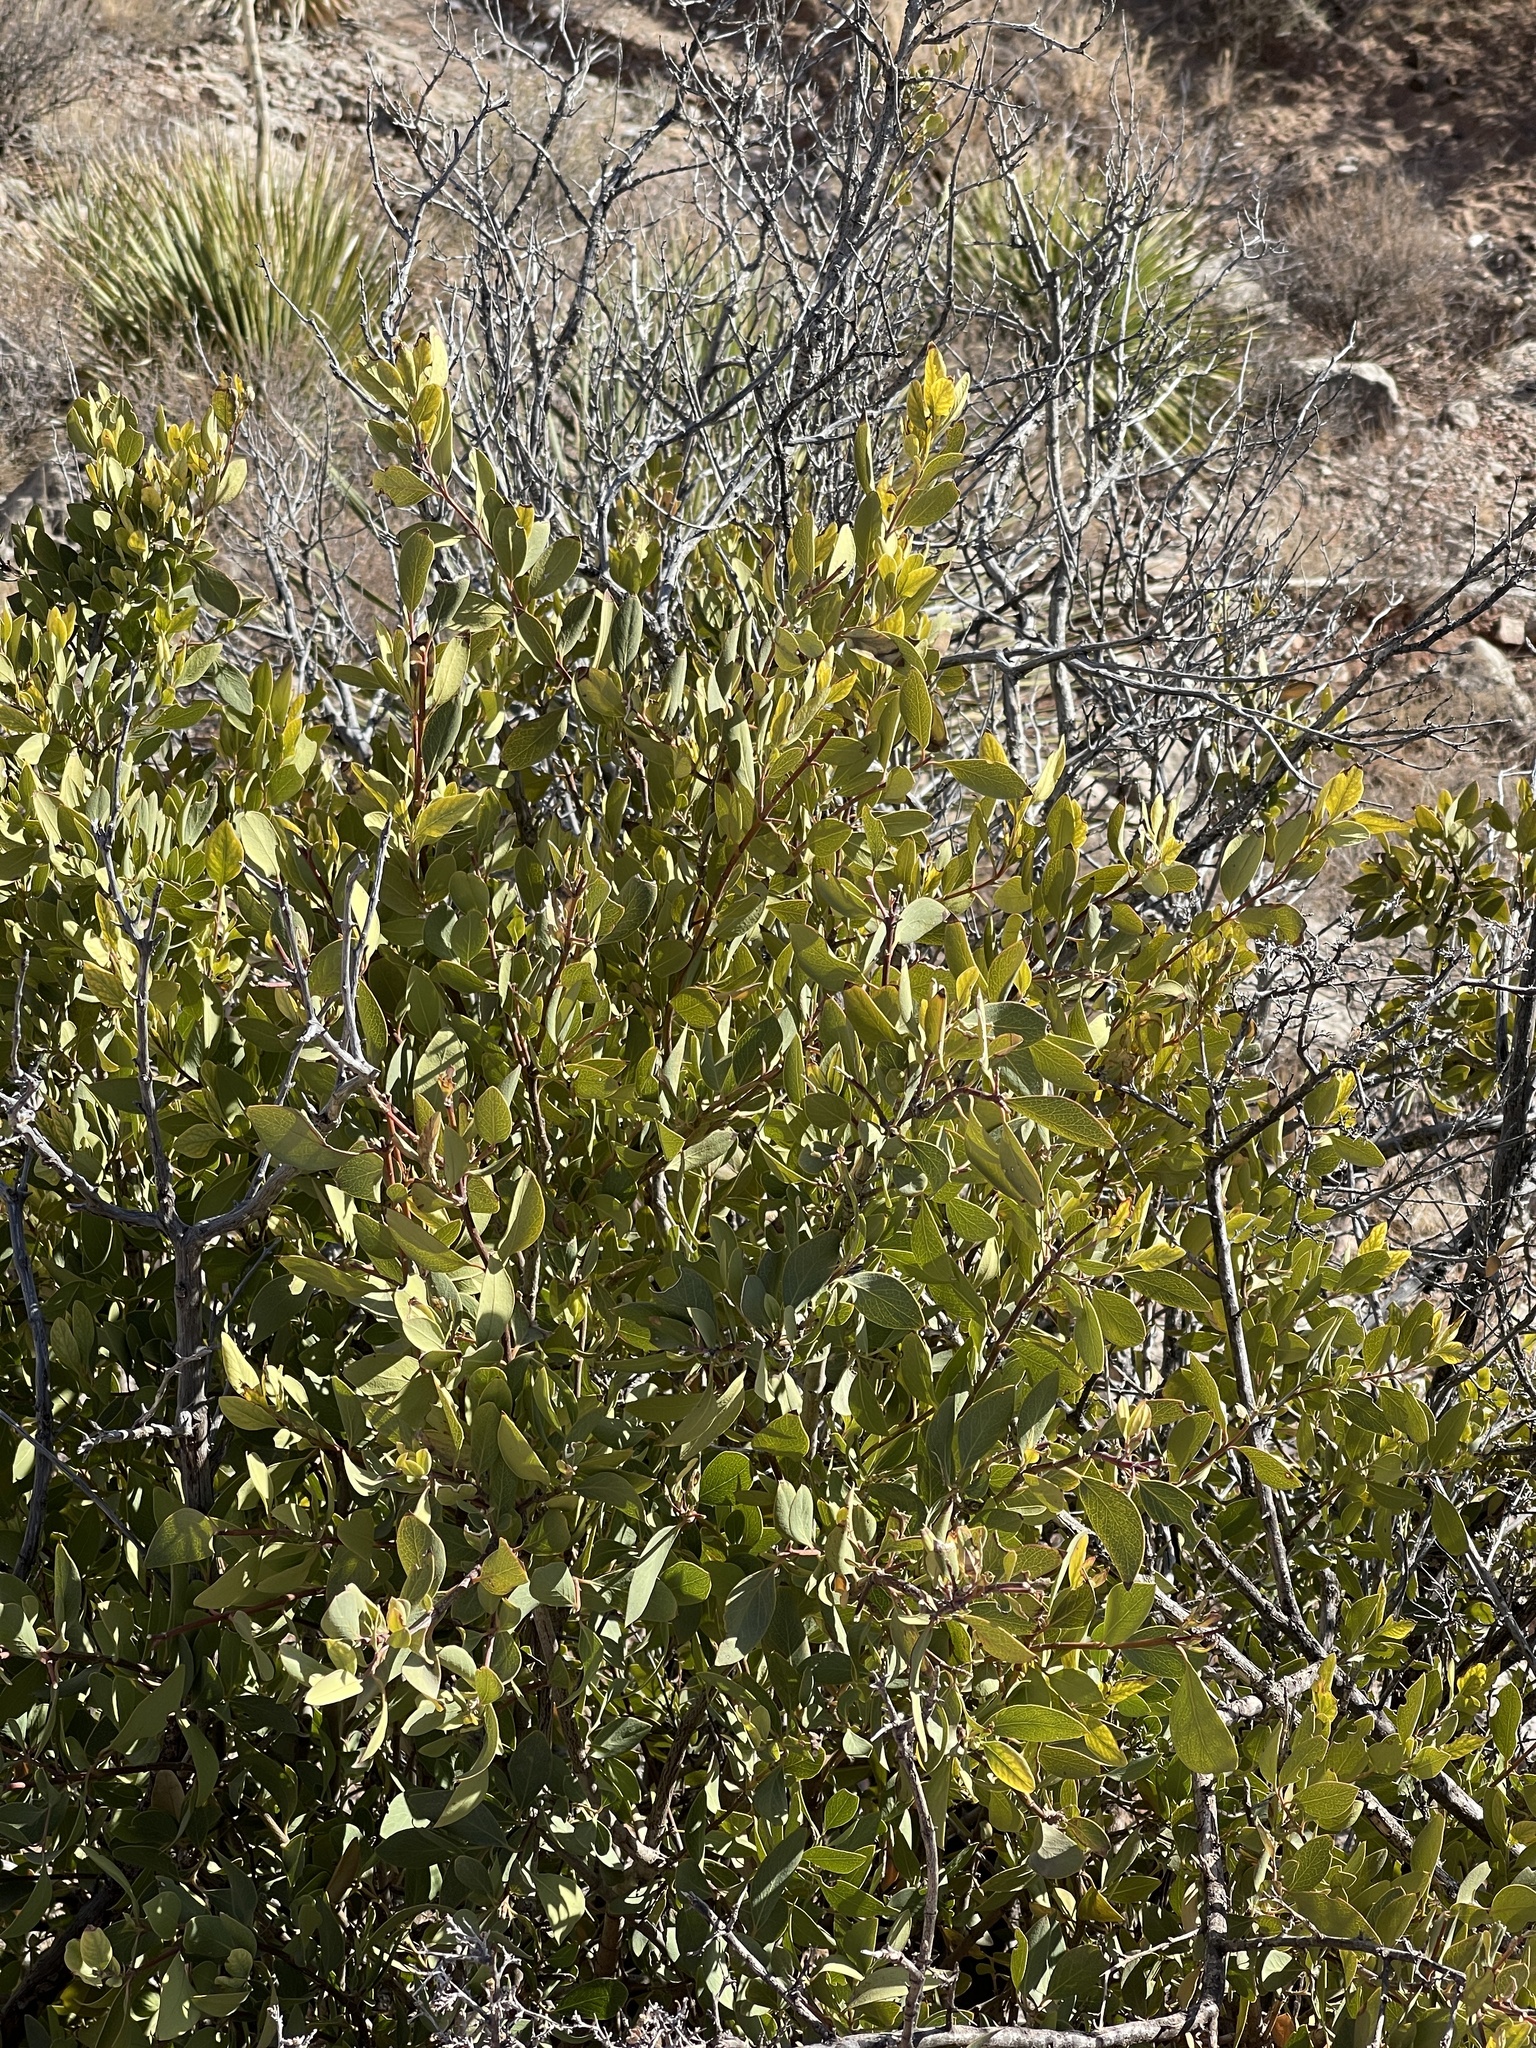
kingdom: Plantae
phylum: Tracheophyta
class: Magnoliopsida
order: Garryales
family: Garryaceae
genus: Garrya
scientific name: Garrya wrightii
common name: Wright's silktassel
